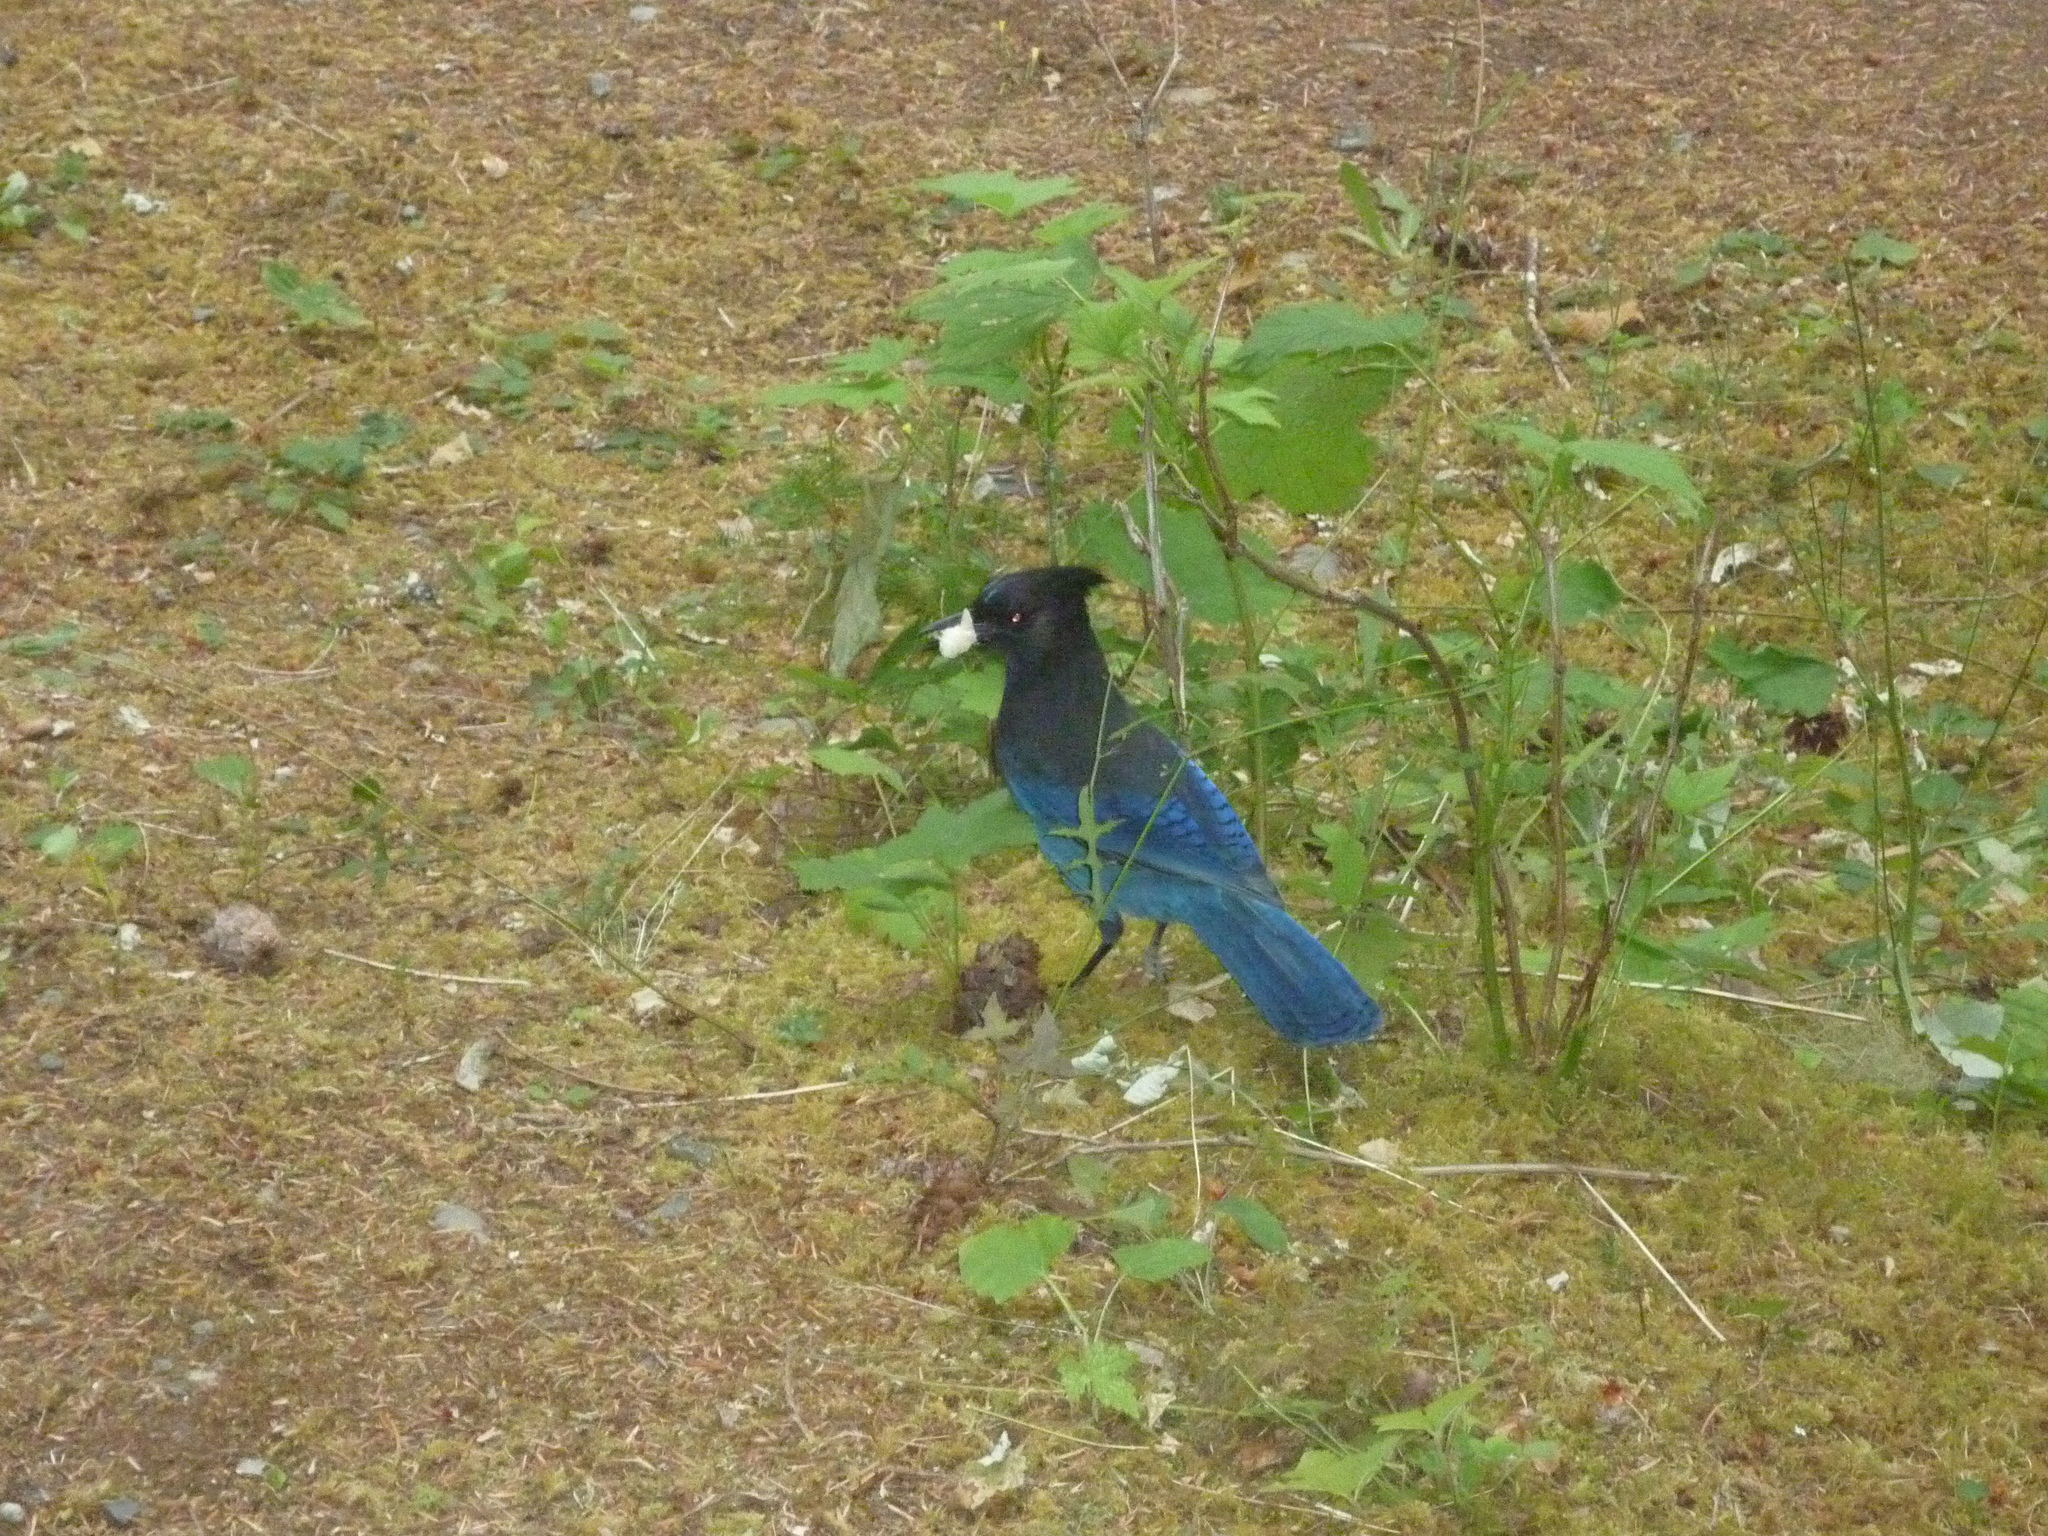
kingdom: Animalia
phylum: Chordata
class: Aves
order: Passeriformes
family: Corvidae
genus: Cyanocitta
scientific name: Cyanocitta stelleri
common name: Steller's jay
